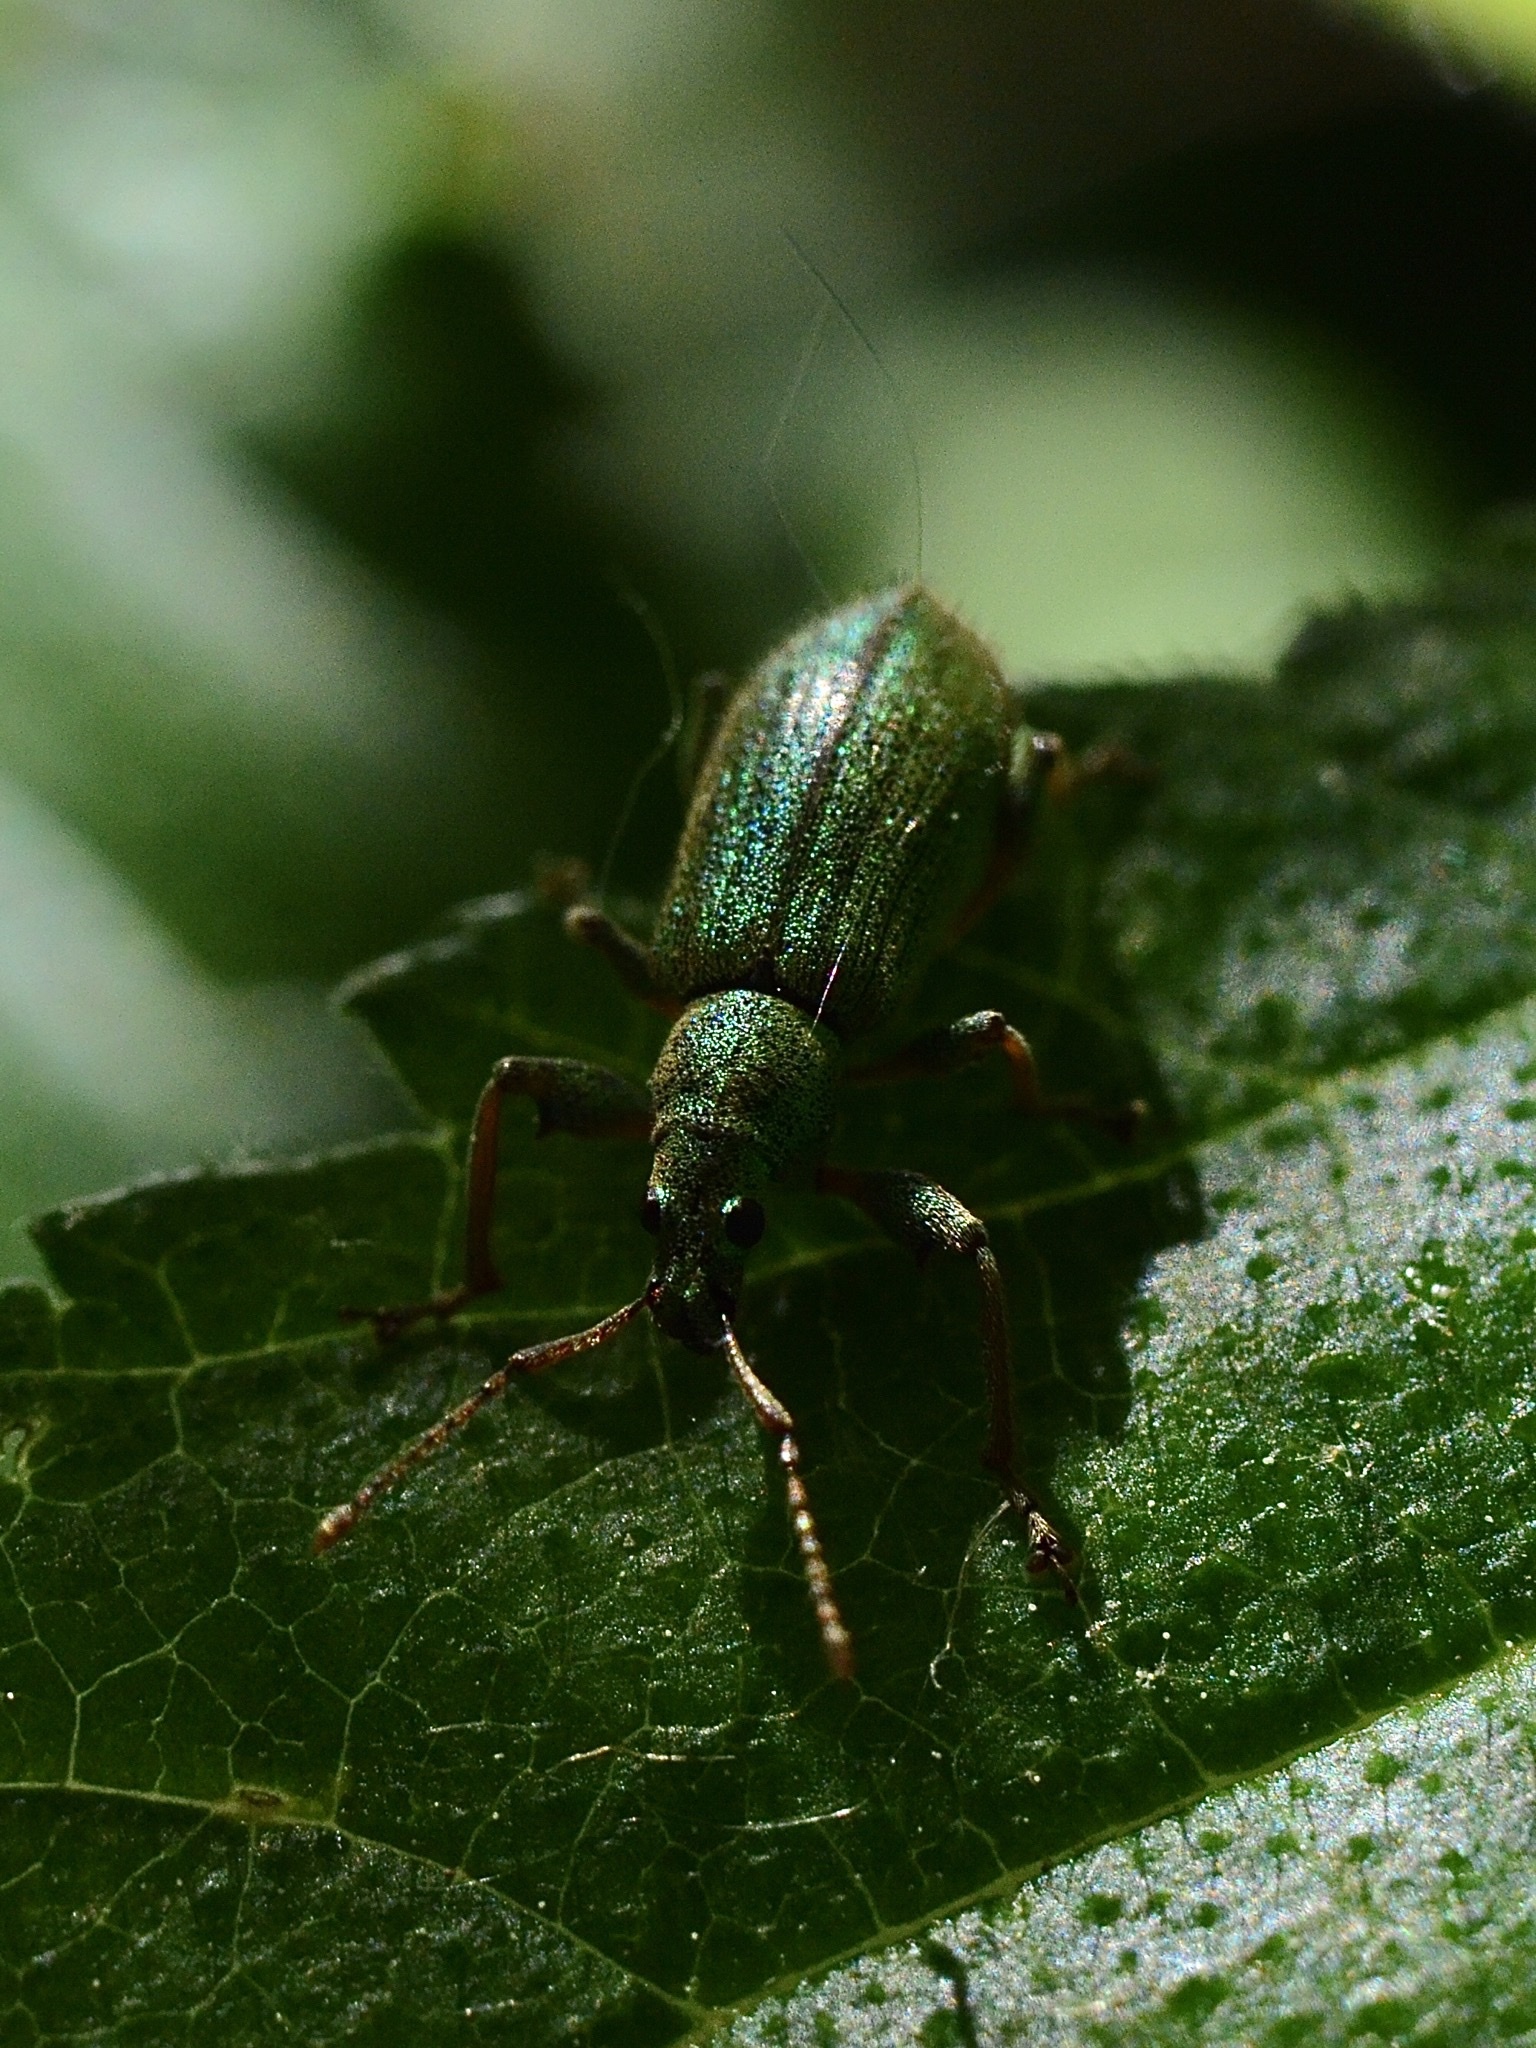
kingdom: Animalia
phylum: Arthropoda
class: Insecta
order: Coleoptera
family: Curculionidae
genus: Phyllobius
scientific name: Phyllobius arborator
